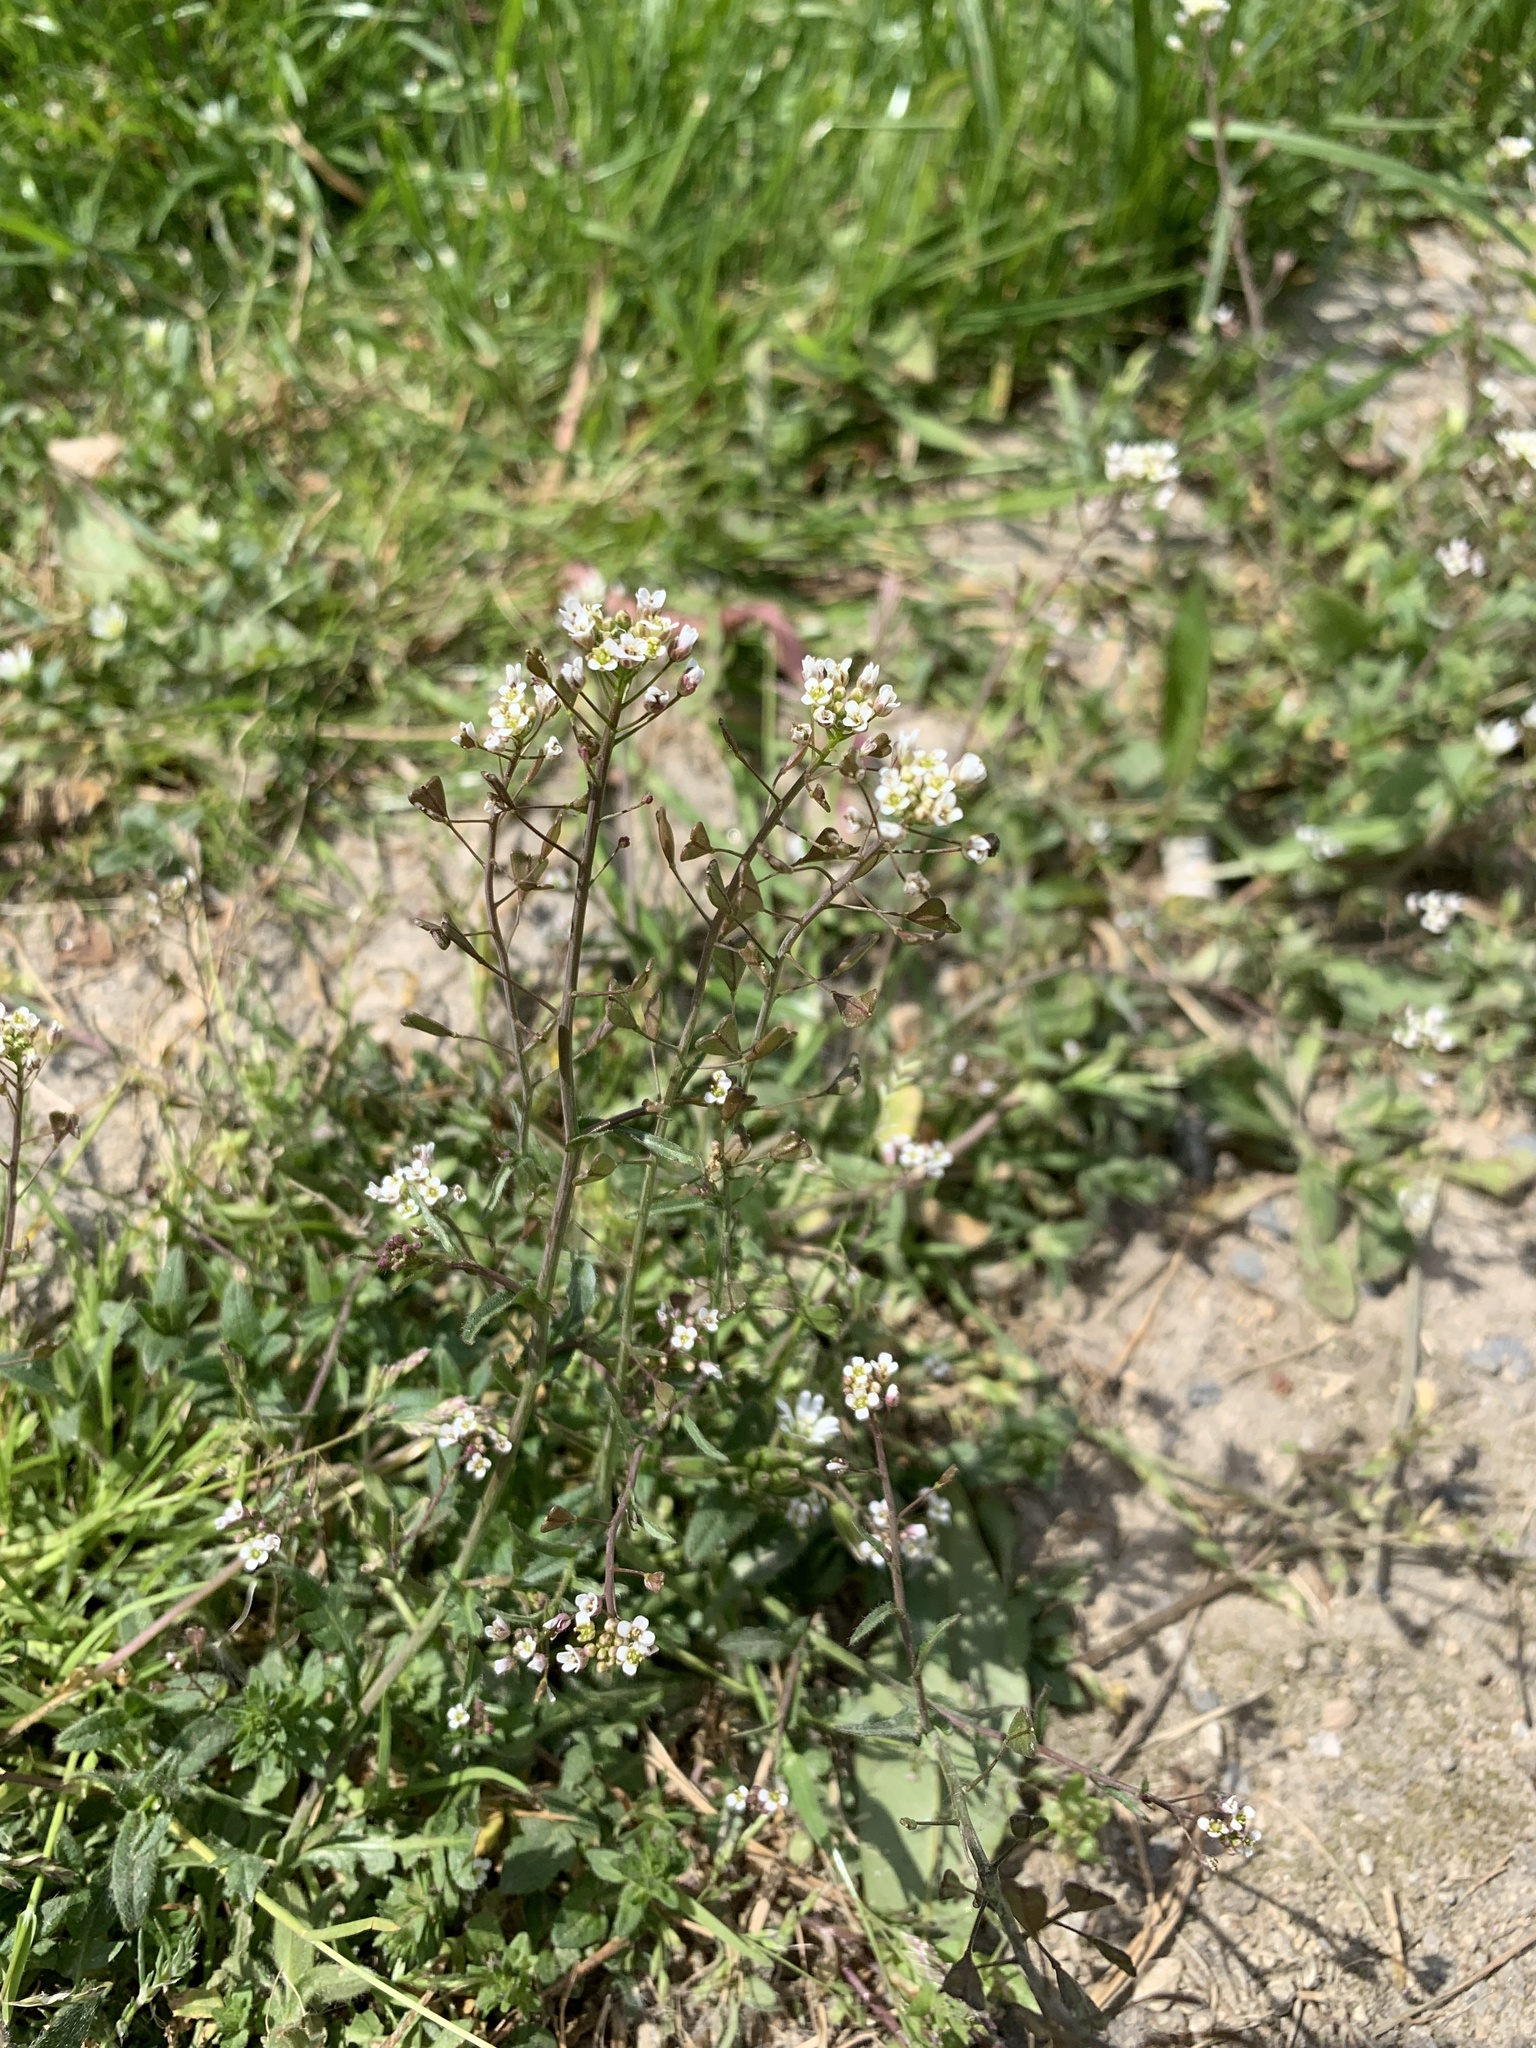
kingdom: Plantae
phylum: Tracheophyta
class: Magnoliopsida
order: Brassicales
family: Brassicaceae
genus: Capsella
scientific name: Capsella bursa-pastoris
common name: Shepherd's purse
